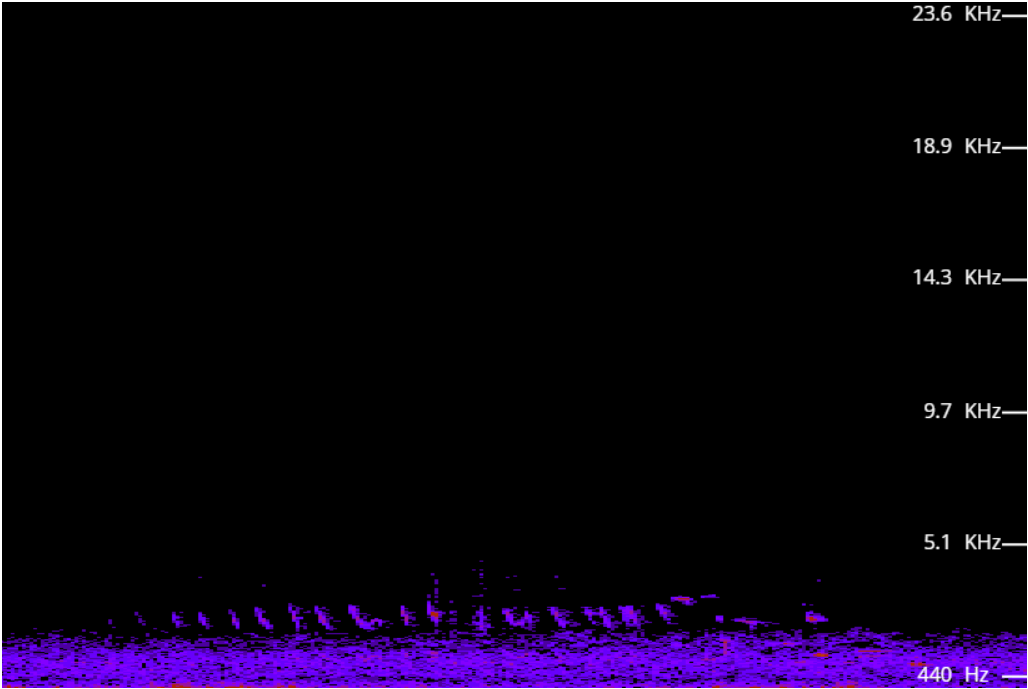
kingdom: Animalia
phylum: Chordata
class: Aves
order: Passeriformes
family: Meliphagidae
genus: Prosthemadera
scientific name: Prosthemadera novaeseelandiae
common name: Tui
